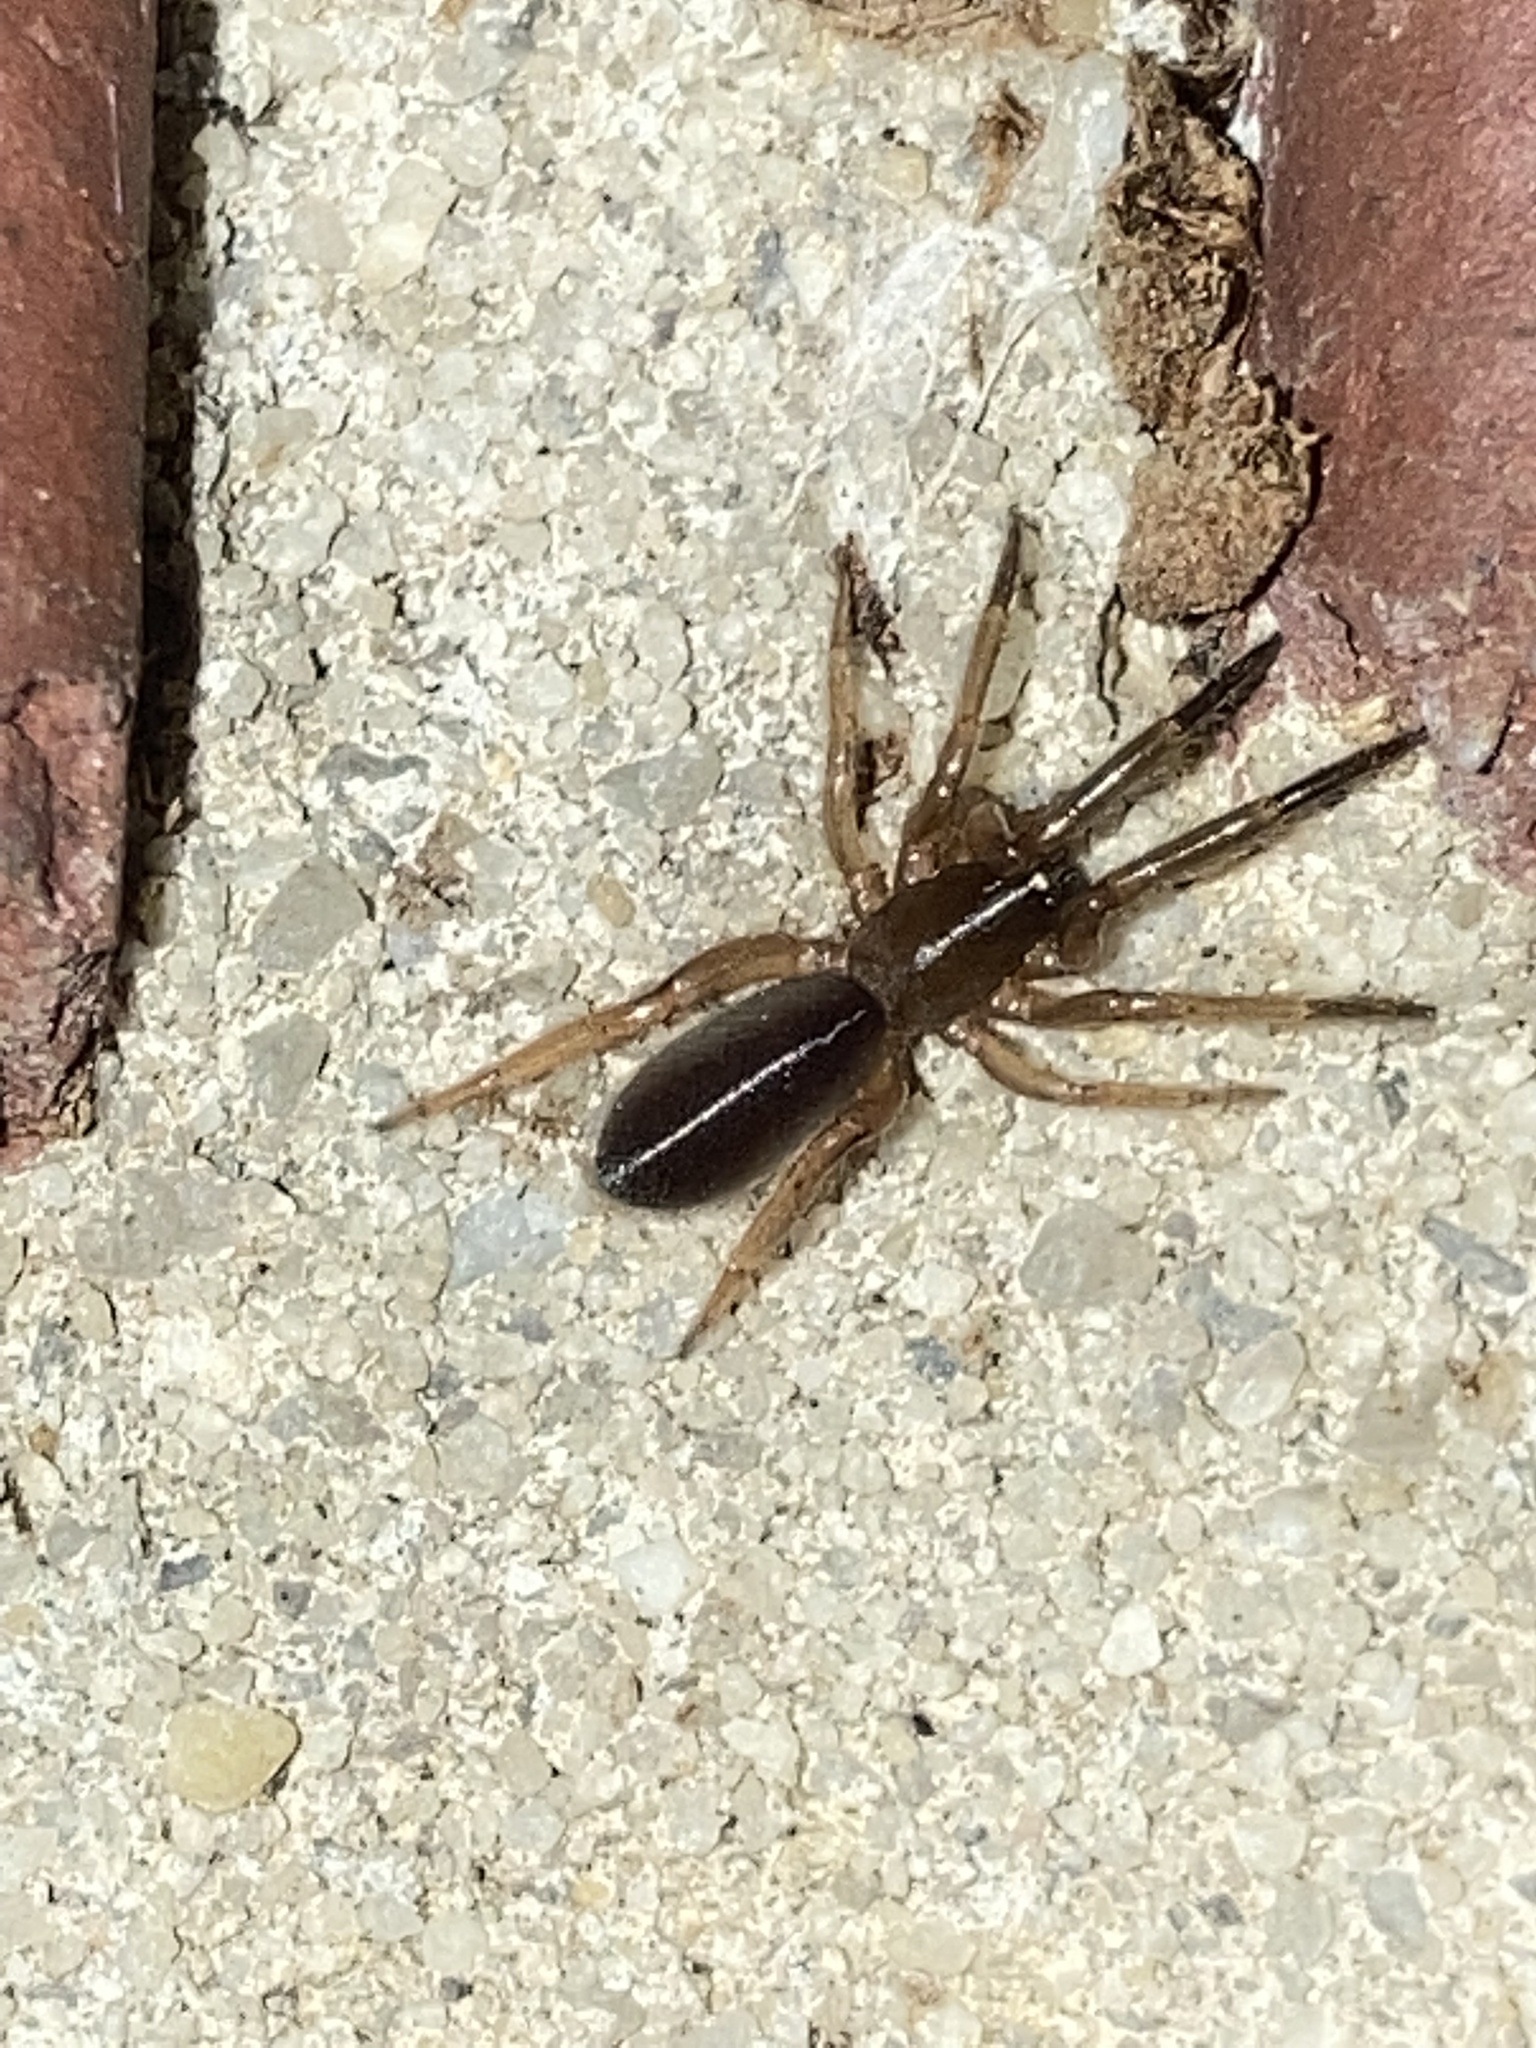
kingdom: Animalia
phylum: Arthropoda
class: Arachnida
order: Araneae
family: Segestriidae
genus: Ariadna
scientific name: Ariadna bicolor
